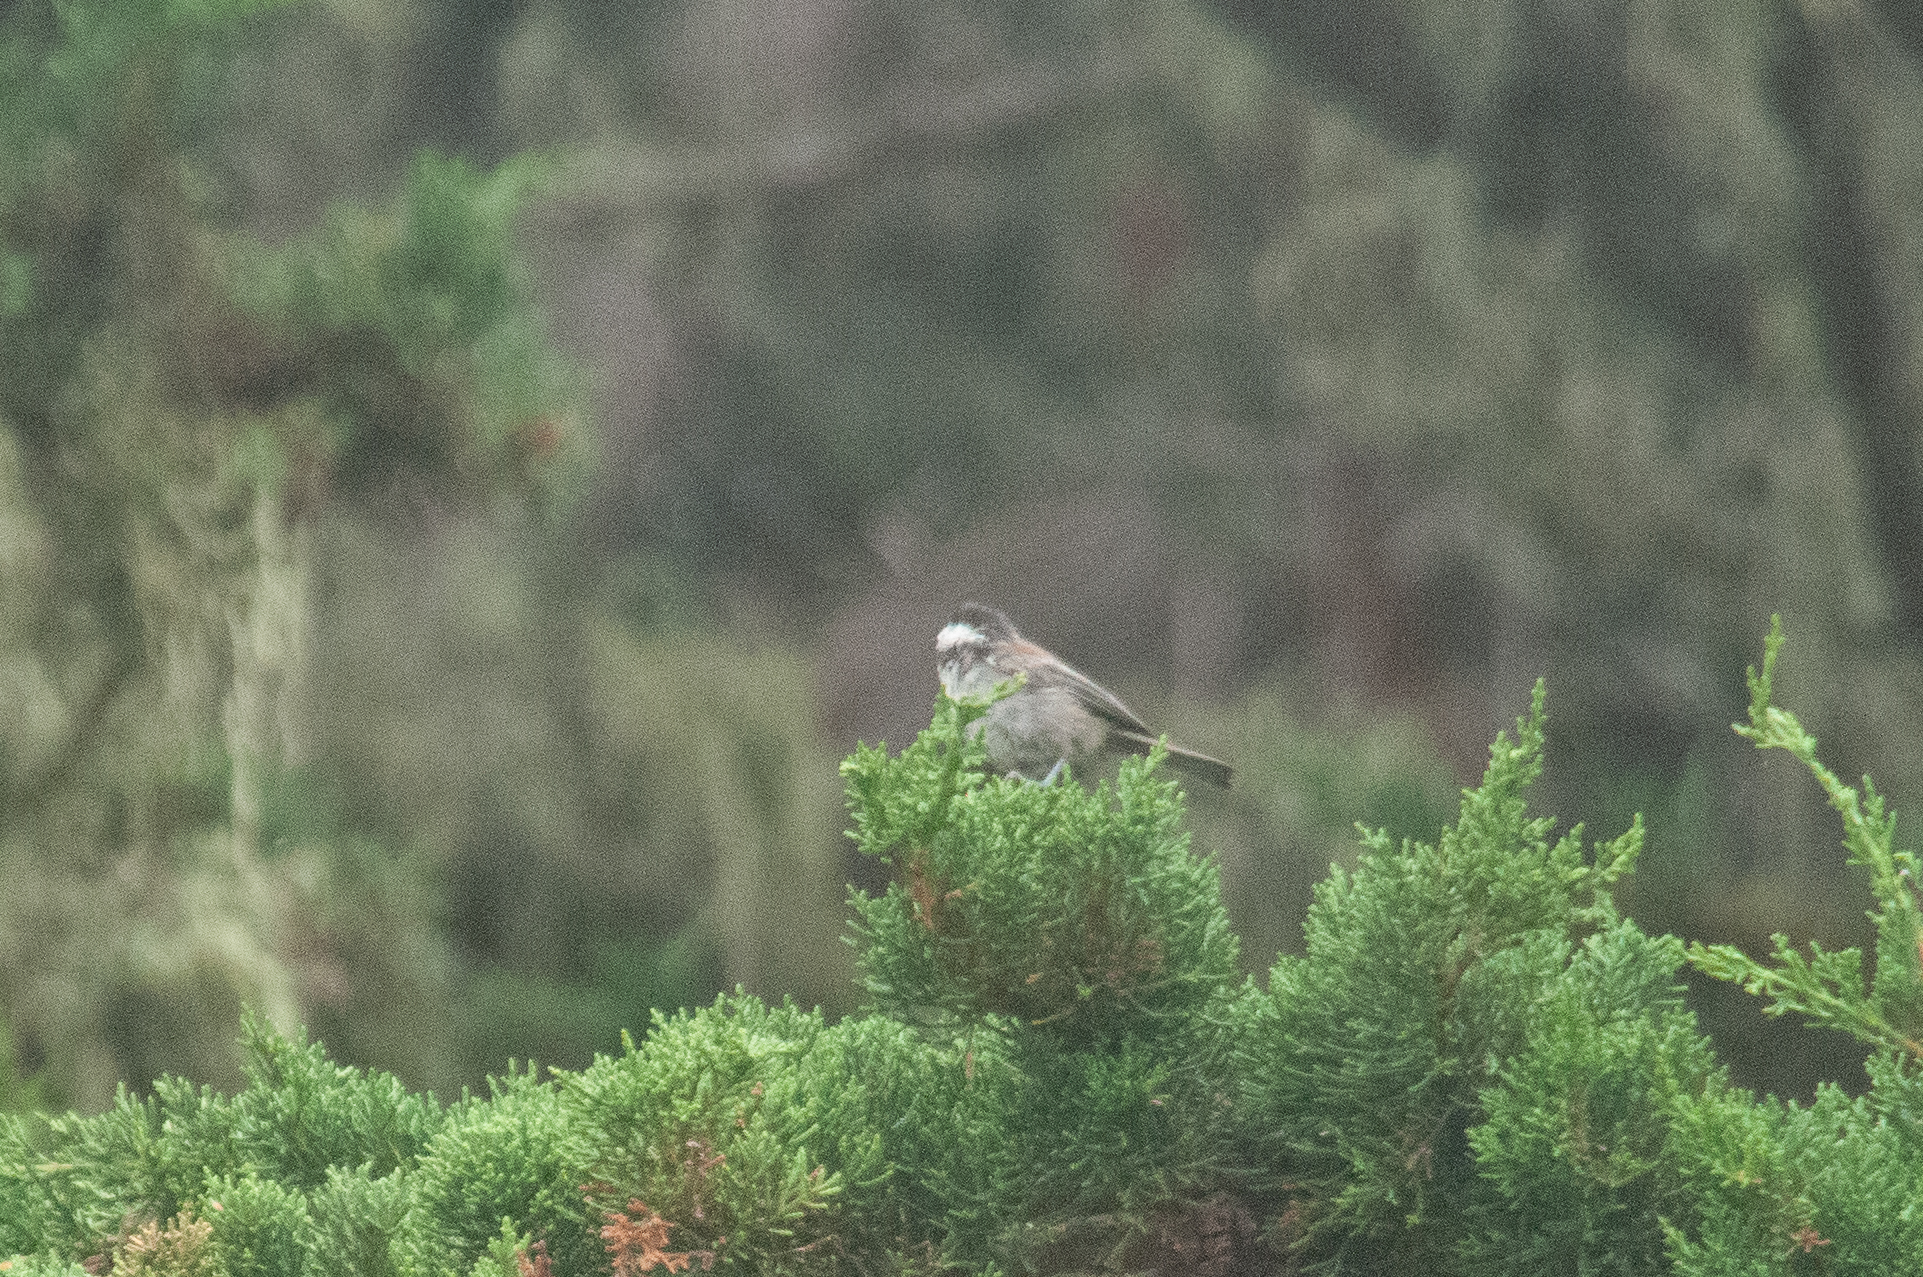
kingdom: Animalia
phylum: Chordata
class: Aves
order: Passeriformes
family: Paridae
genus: Poecile
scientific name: Poecile rufescens
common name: Chestnut-backed chickadee
